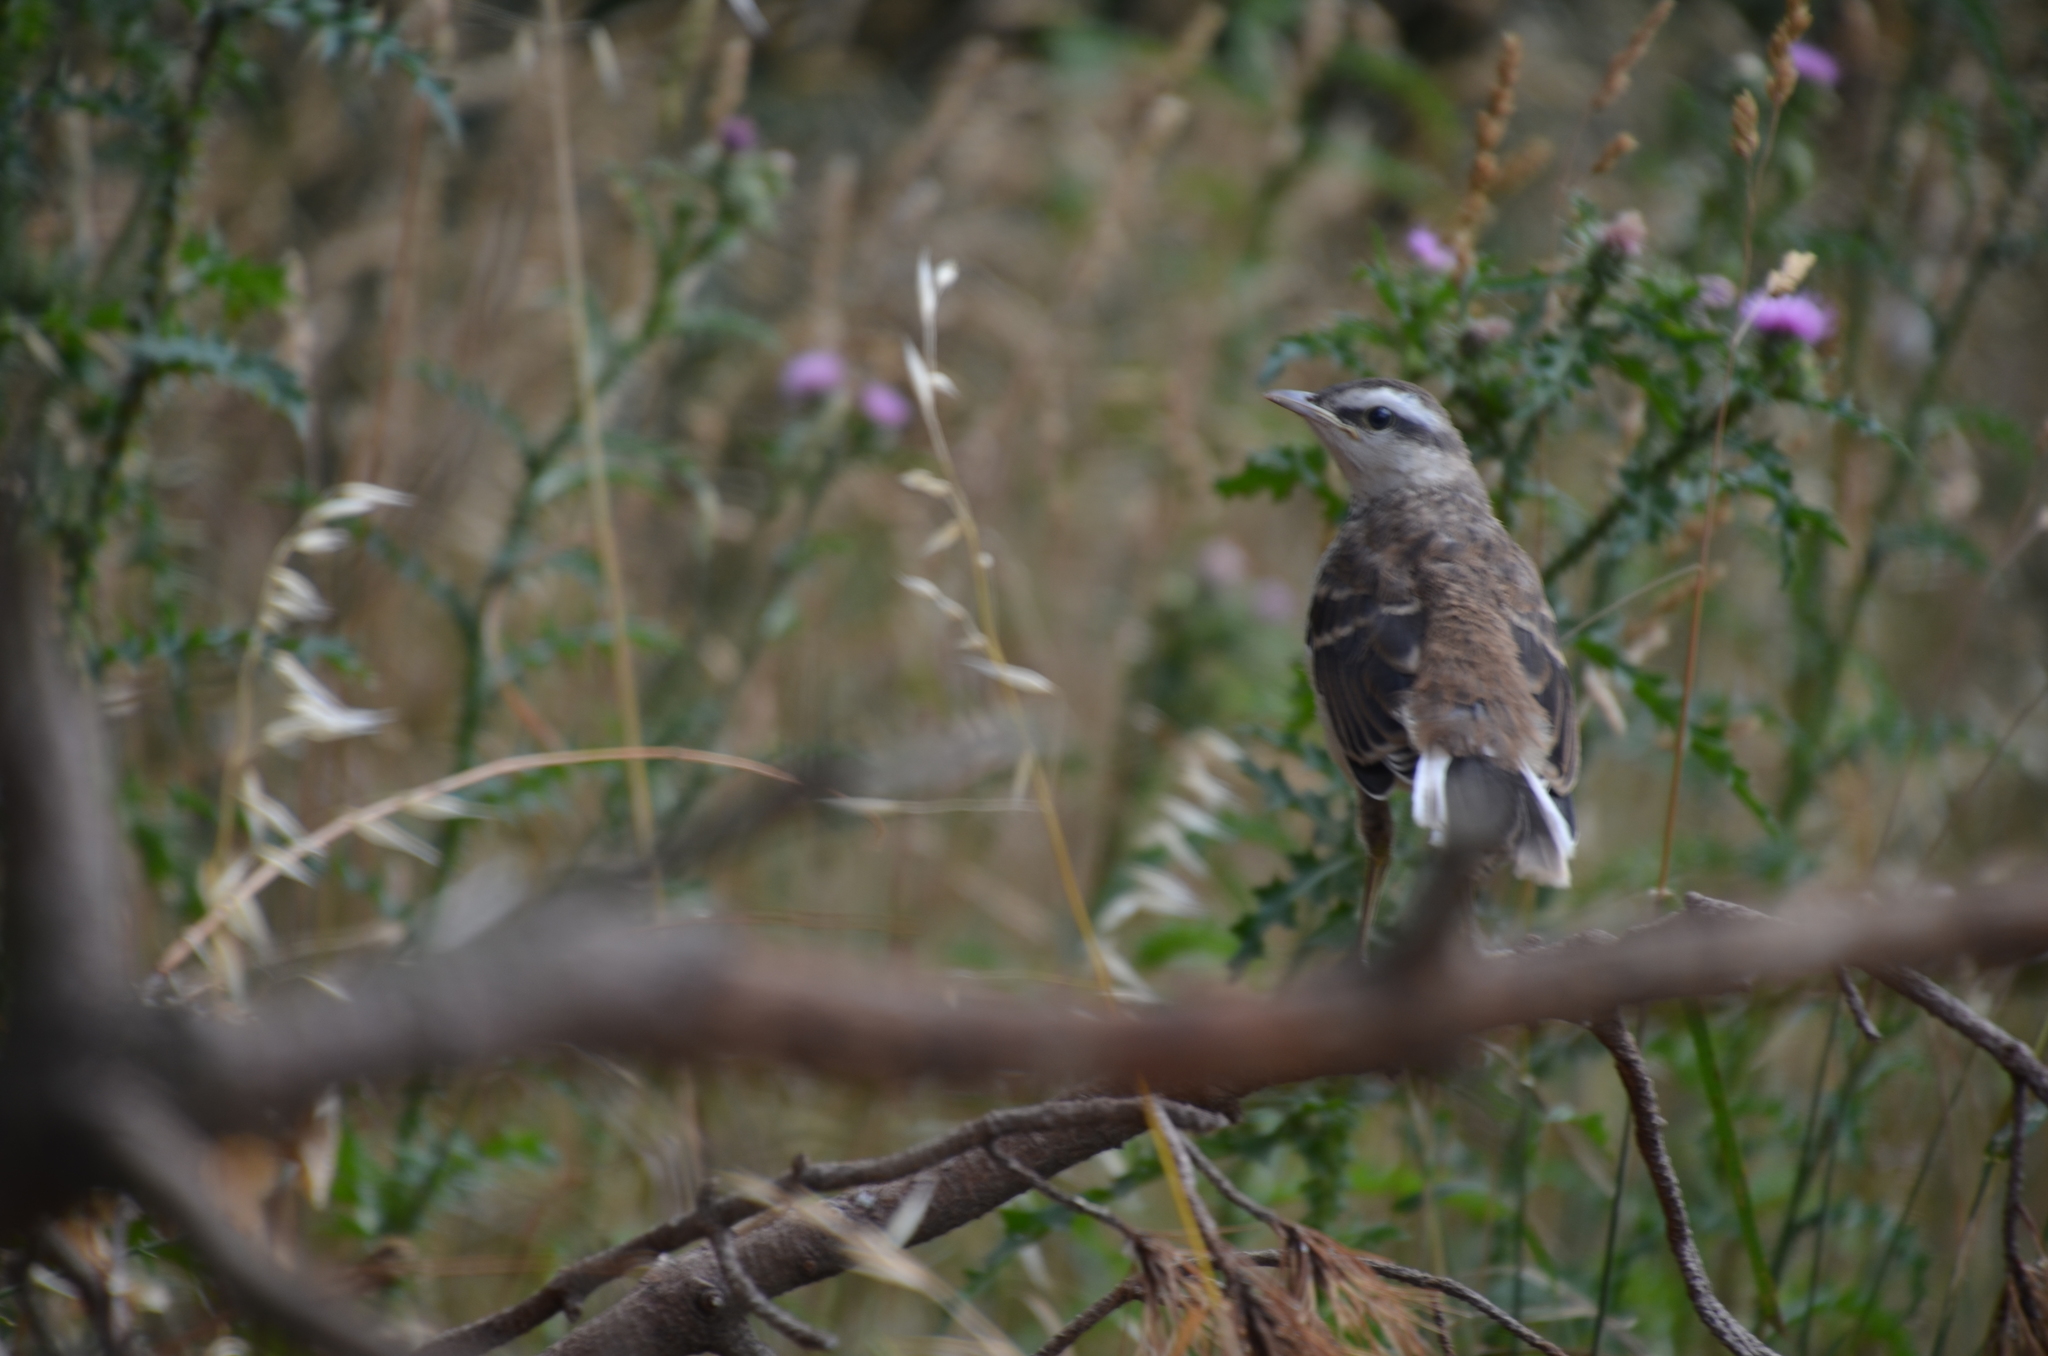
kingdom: Animalia
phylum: Chordata
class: Aves
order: Passeriformes
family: Mimidae
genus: Mimus
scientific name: Mimus saturninus
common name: Chalk-browed mockingbird
